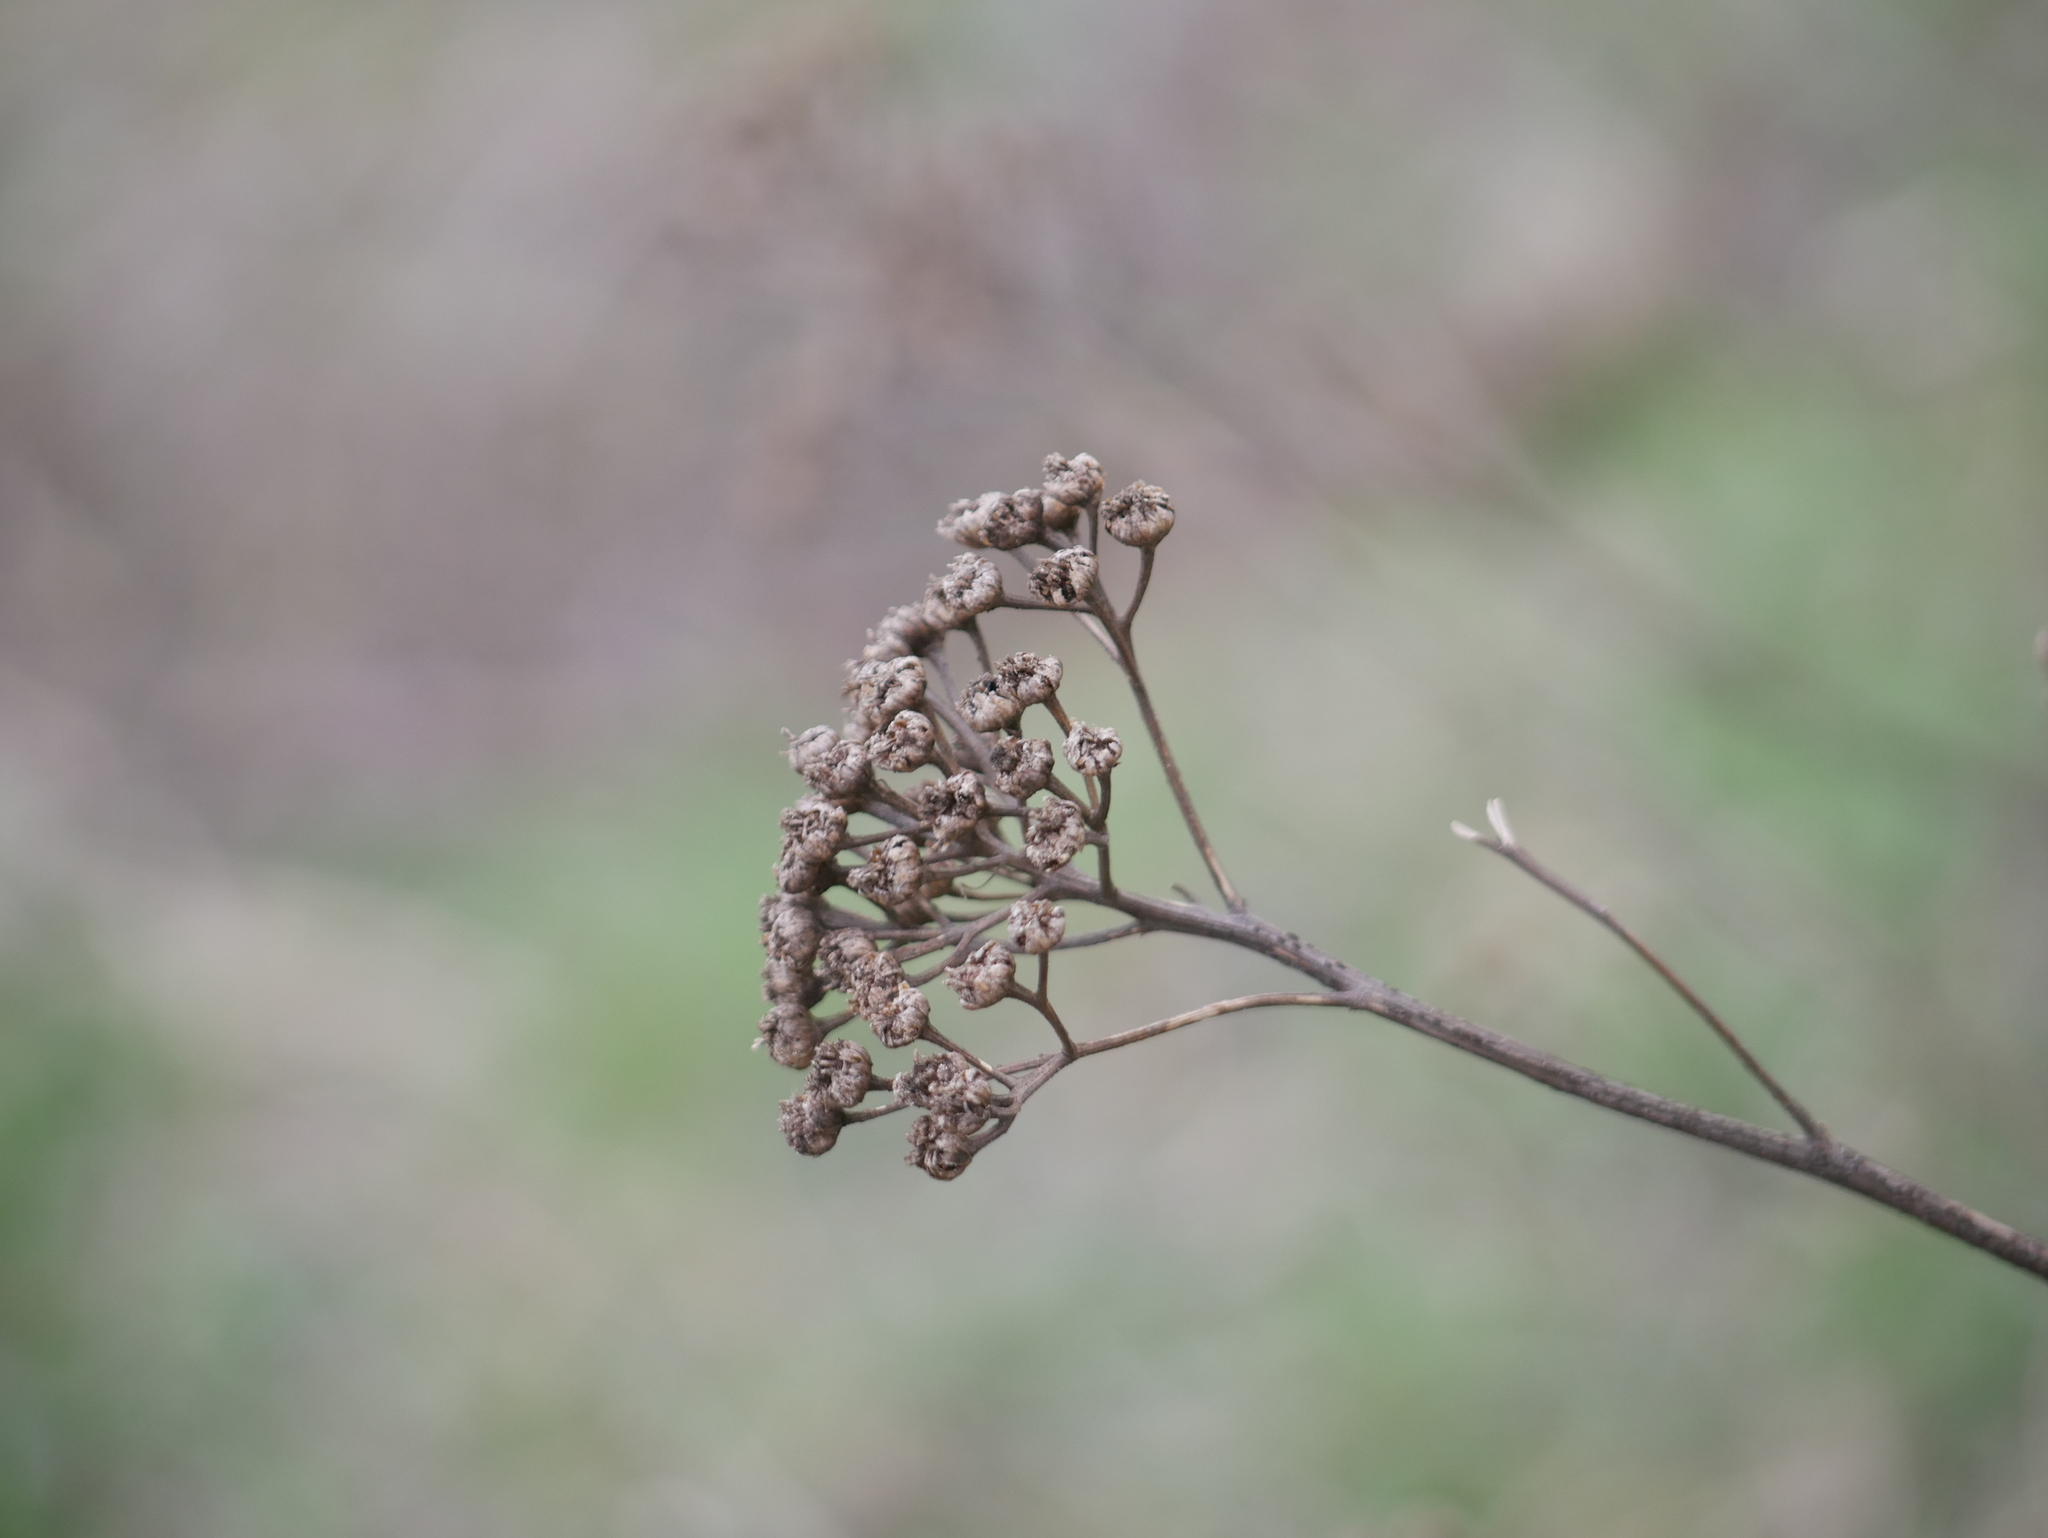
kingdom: Plantae
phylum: Tracheophyta
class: Magnoliopsida
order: Asterales
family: Asteraceae
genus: Tanacetum
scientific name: Tanacetum vulgare
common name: Common tansy
